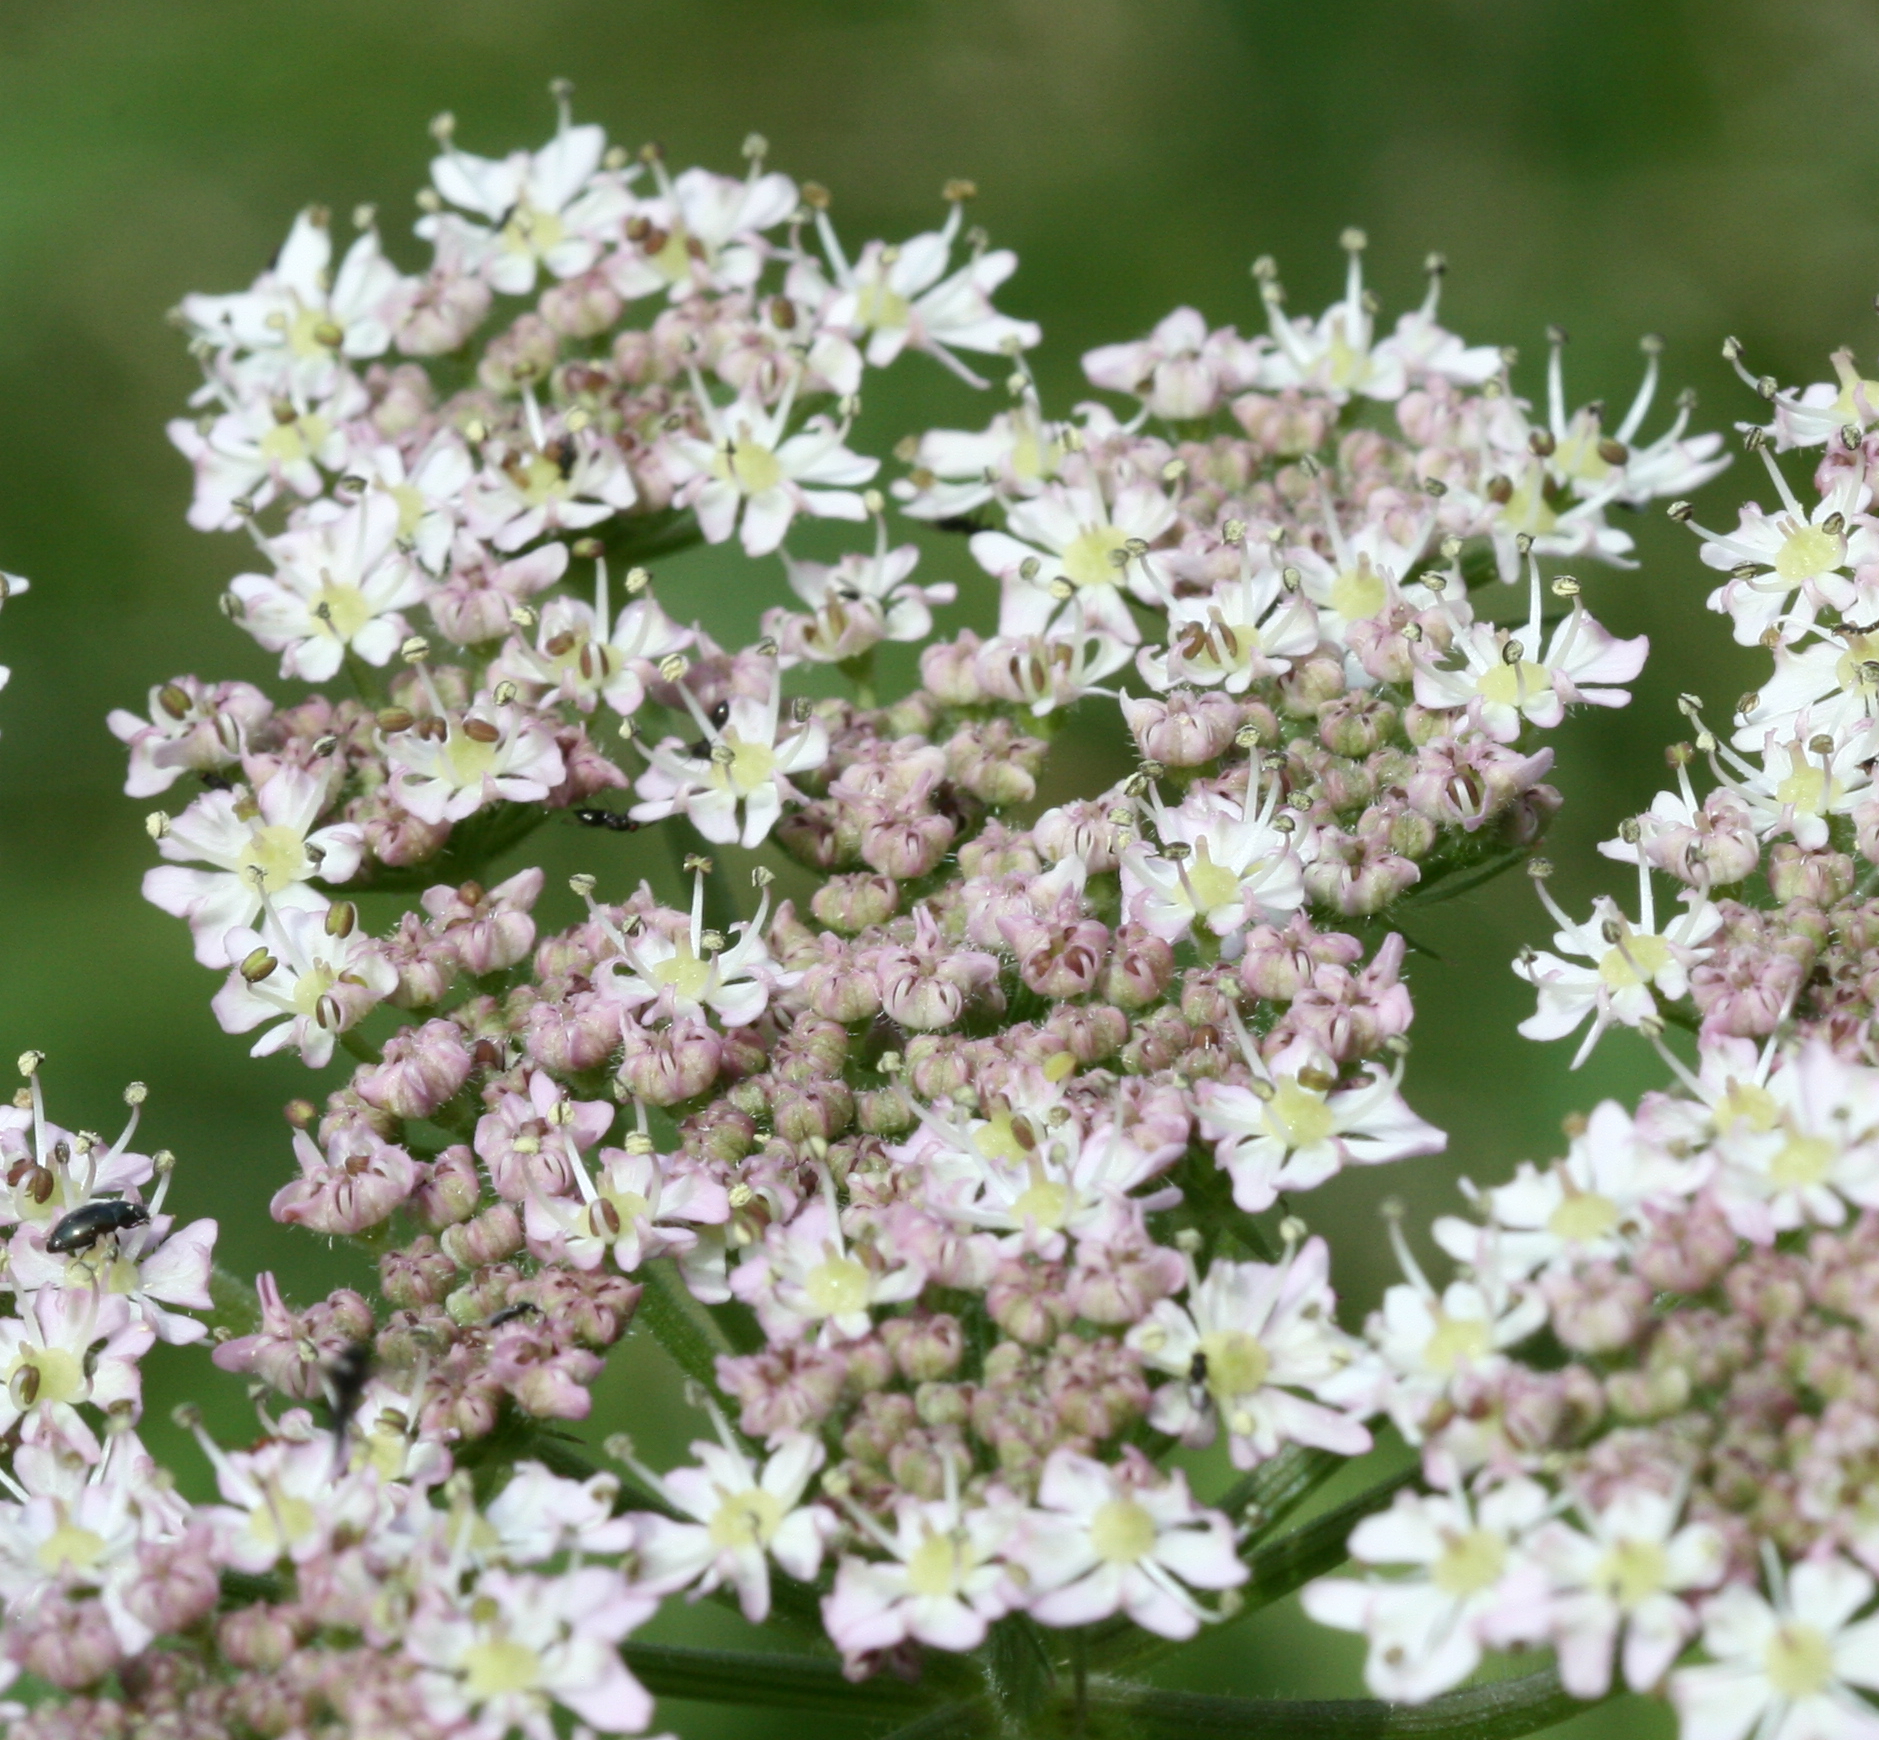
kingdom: Plantae
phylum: Tracheophyta
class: Magnoliopsida
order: Apiales
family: Apiaceae
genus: Heracleum
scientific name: Heracleum sphondylium
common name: Hogweed
